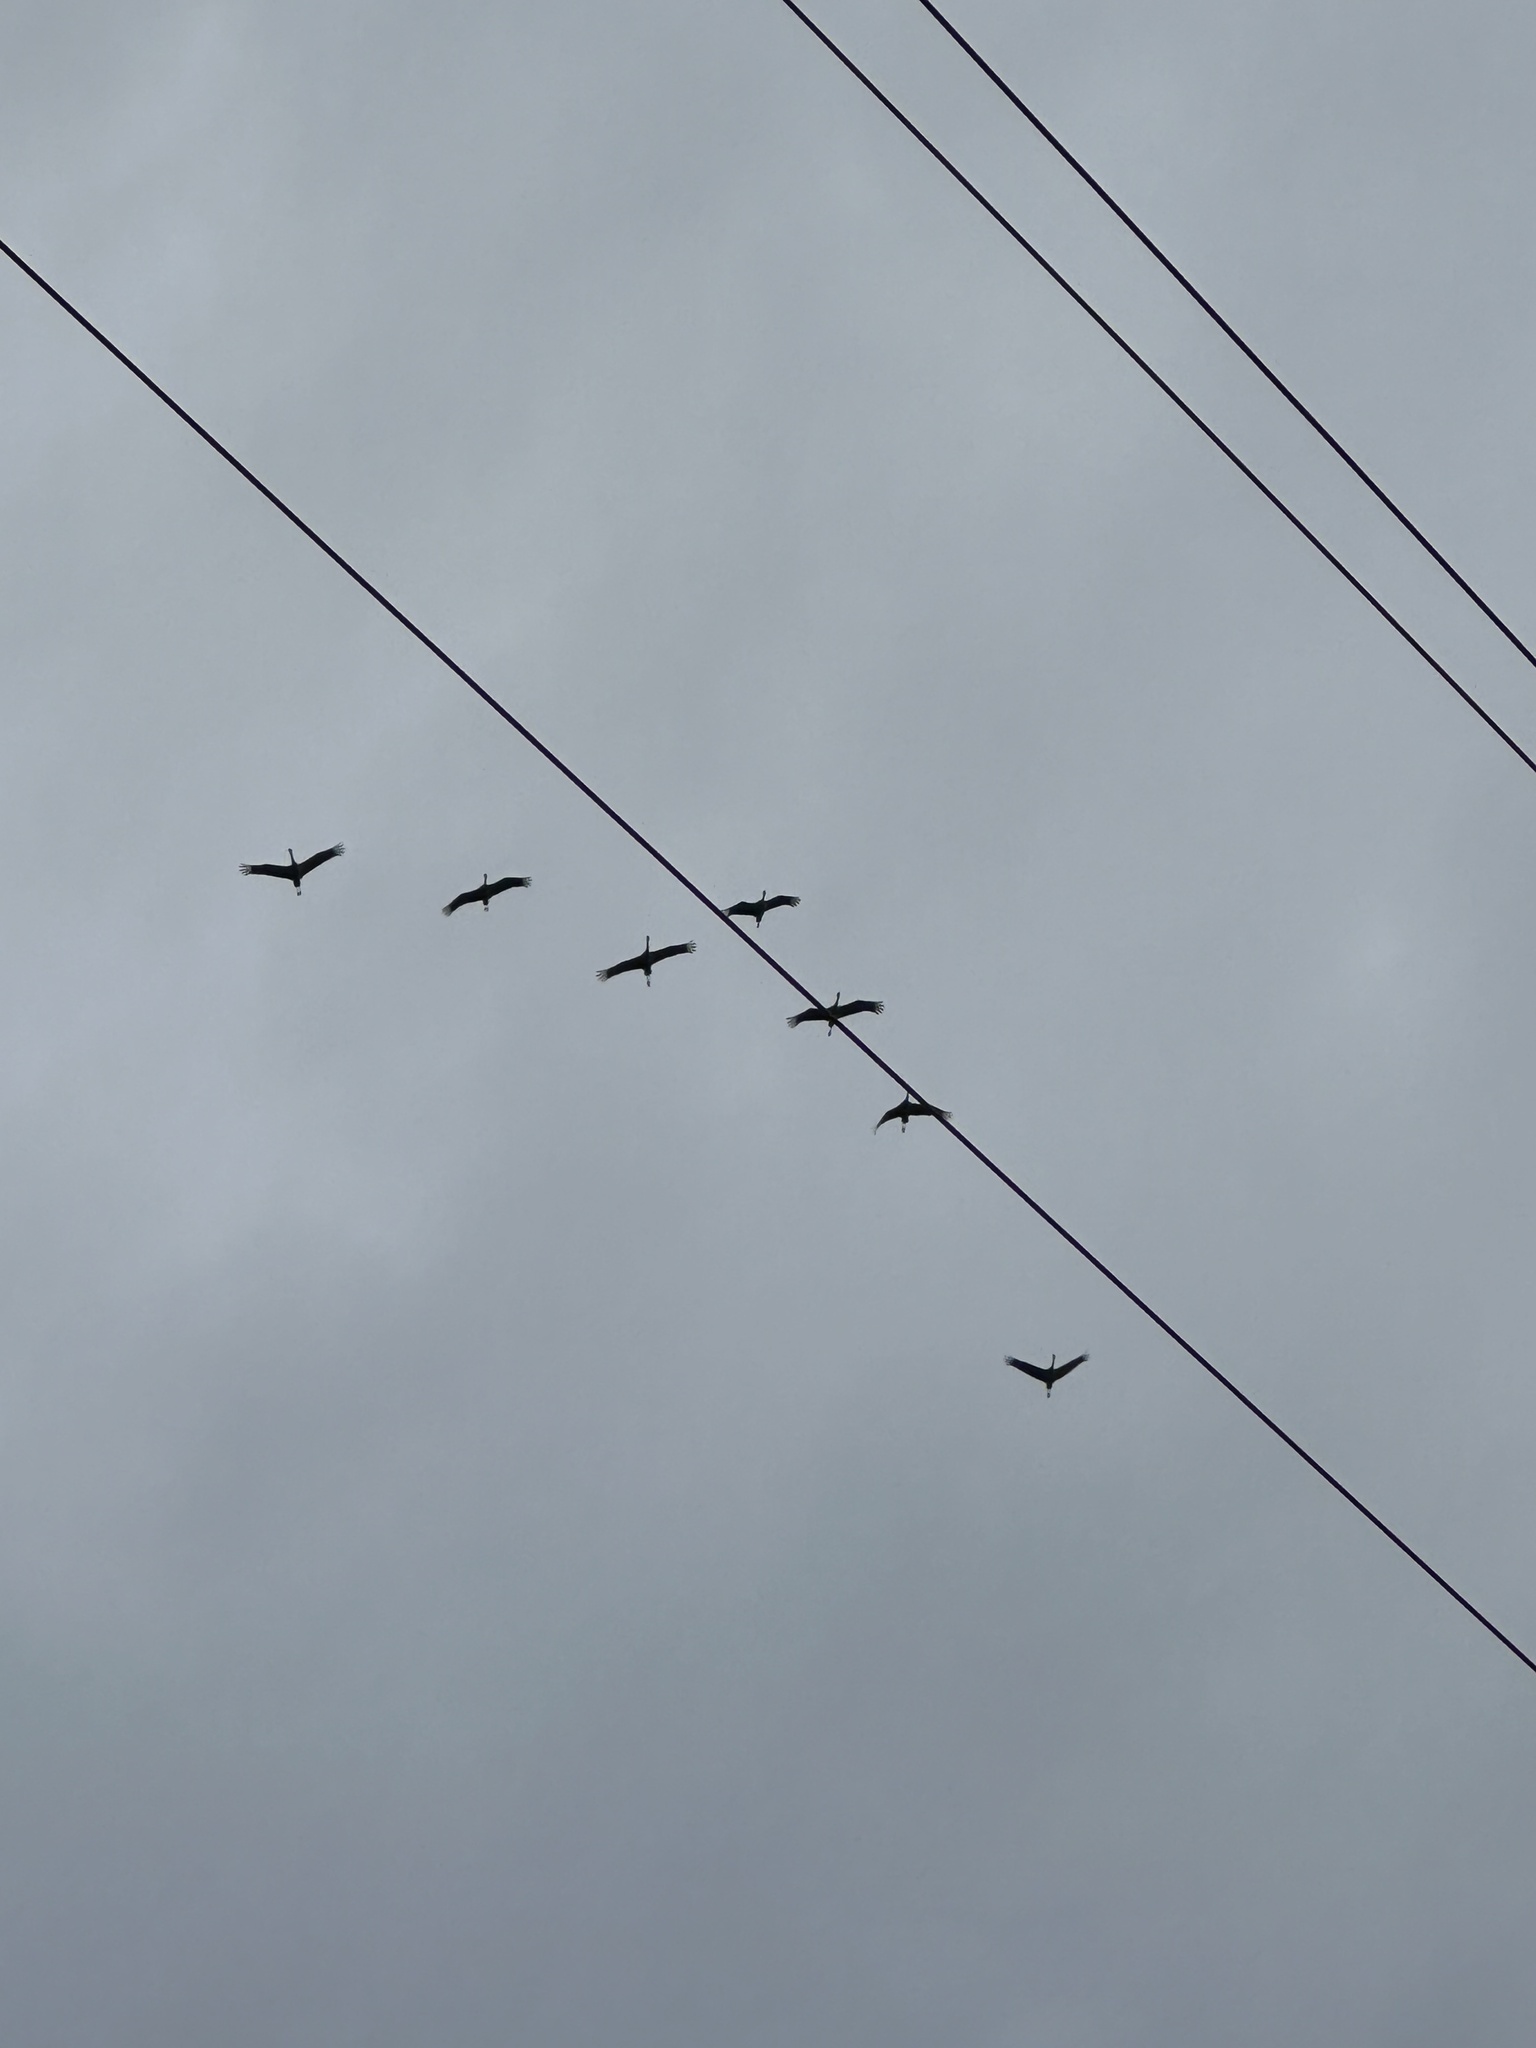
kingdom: Animalia
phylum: Chordata
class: Aves
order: Gruiformes
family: Gruidae
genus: Grus
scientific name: Grus canadensis
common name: Sandhill crane
